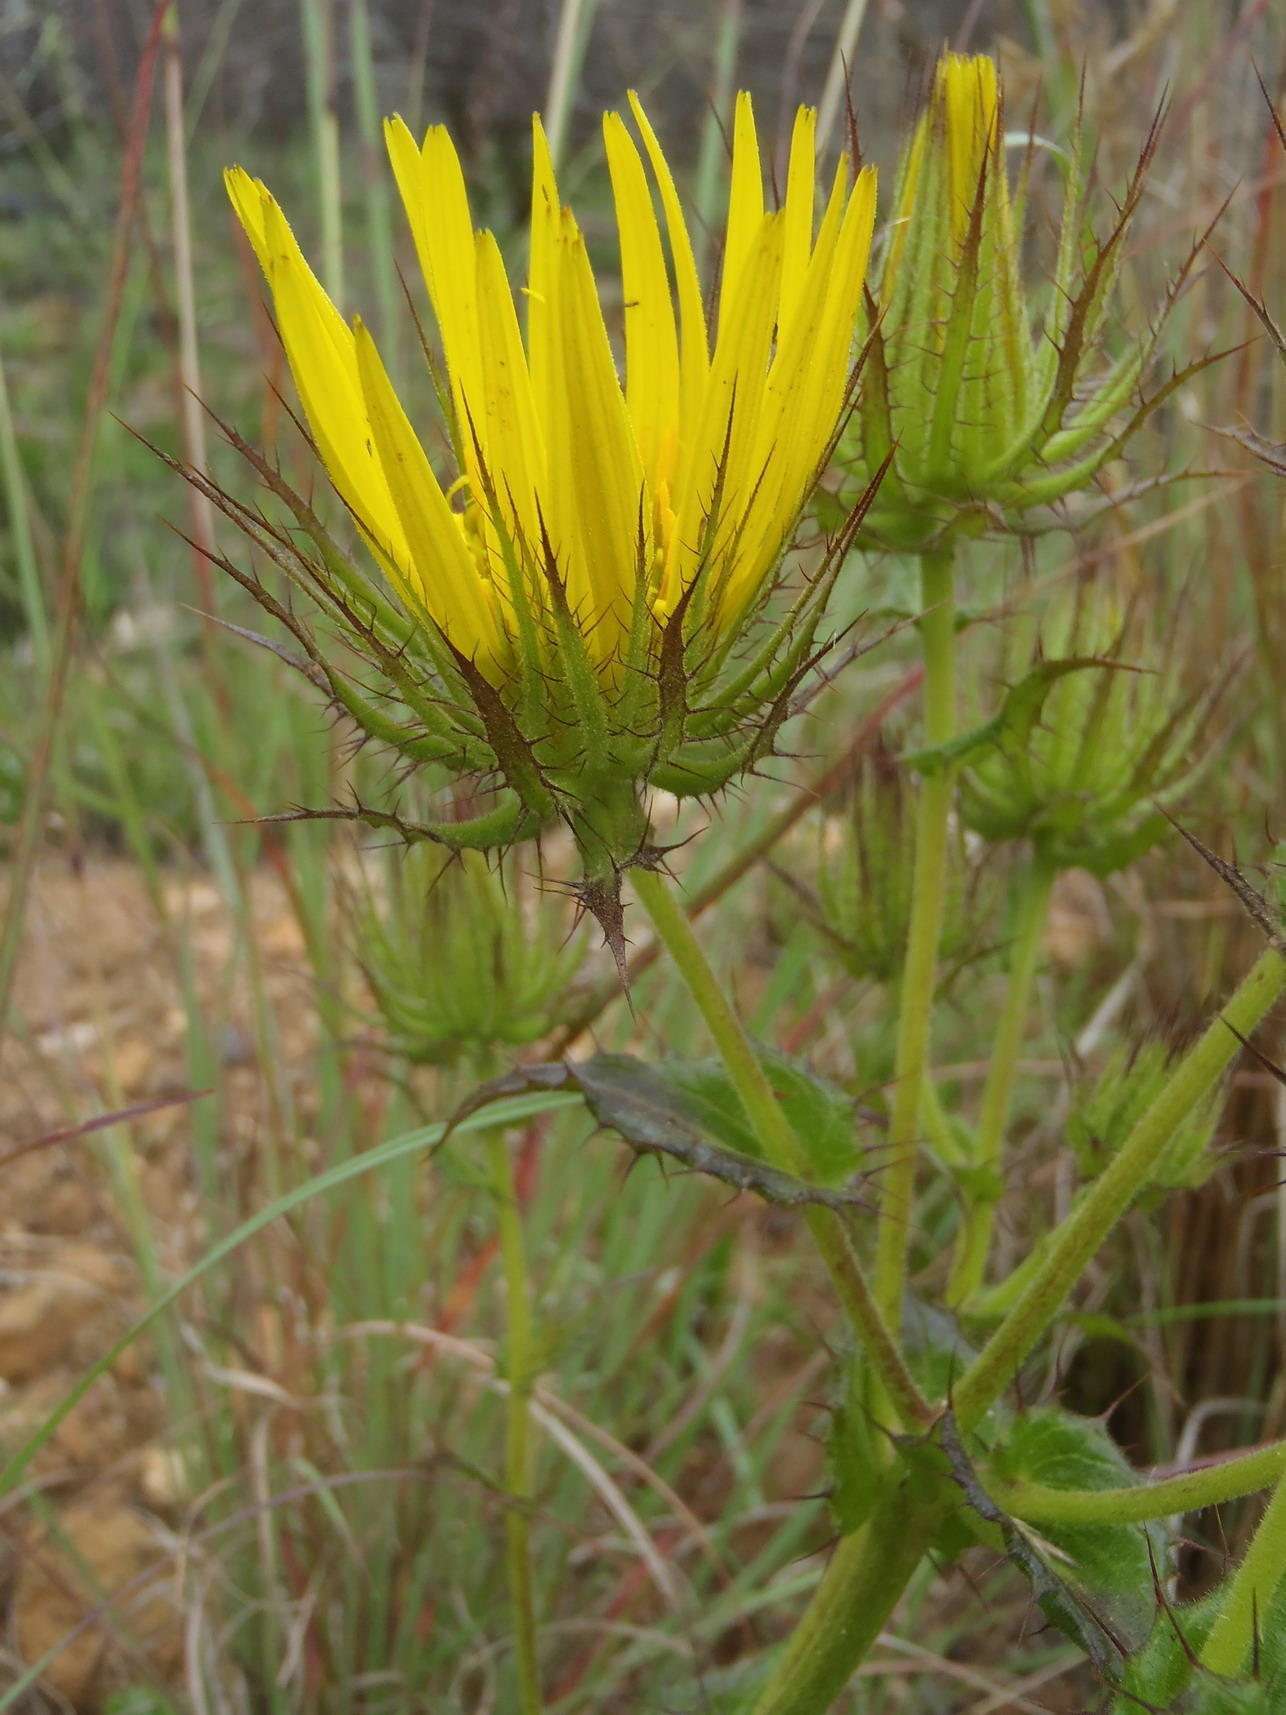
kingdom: Plantae
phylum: Tracheophyta
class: Magnoliopsida
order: Asterales
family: Asteraceae
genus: Berkheya
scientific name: Berkheya carlinoides
